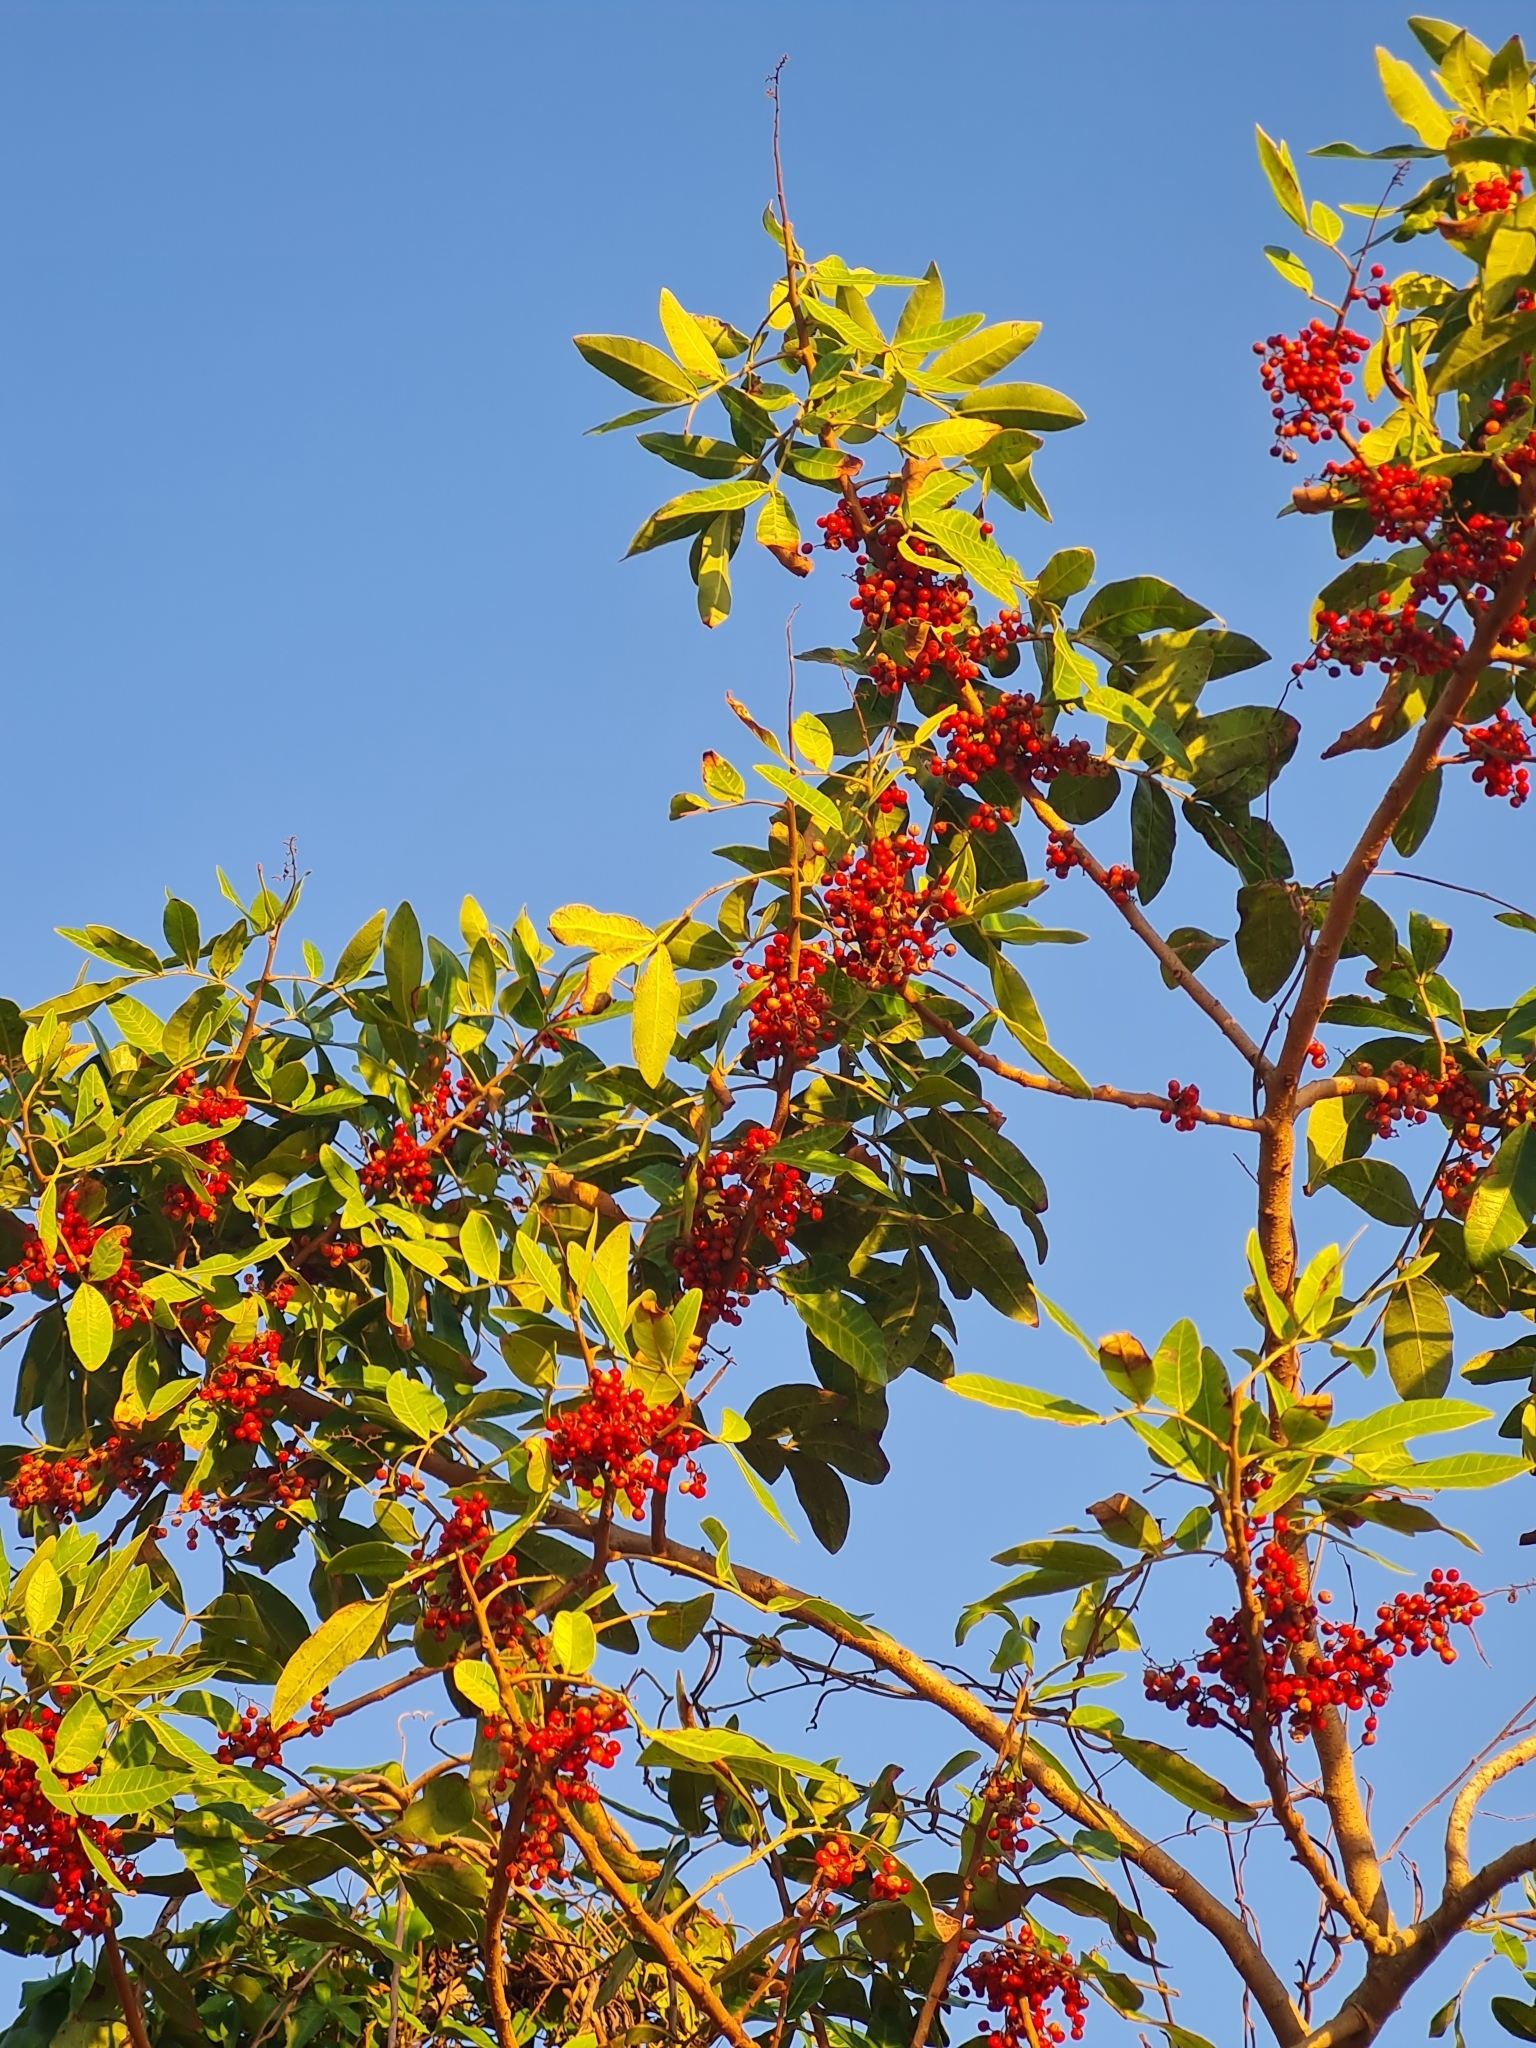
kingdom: Plantae
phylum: Tracheophyta
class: Magnoliopsida
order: Sapindales
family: Anacardiaceae
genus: Schinus
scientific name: Schinus terebinthifolia
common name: Brazilian peppertree
